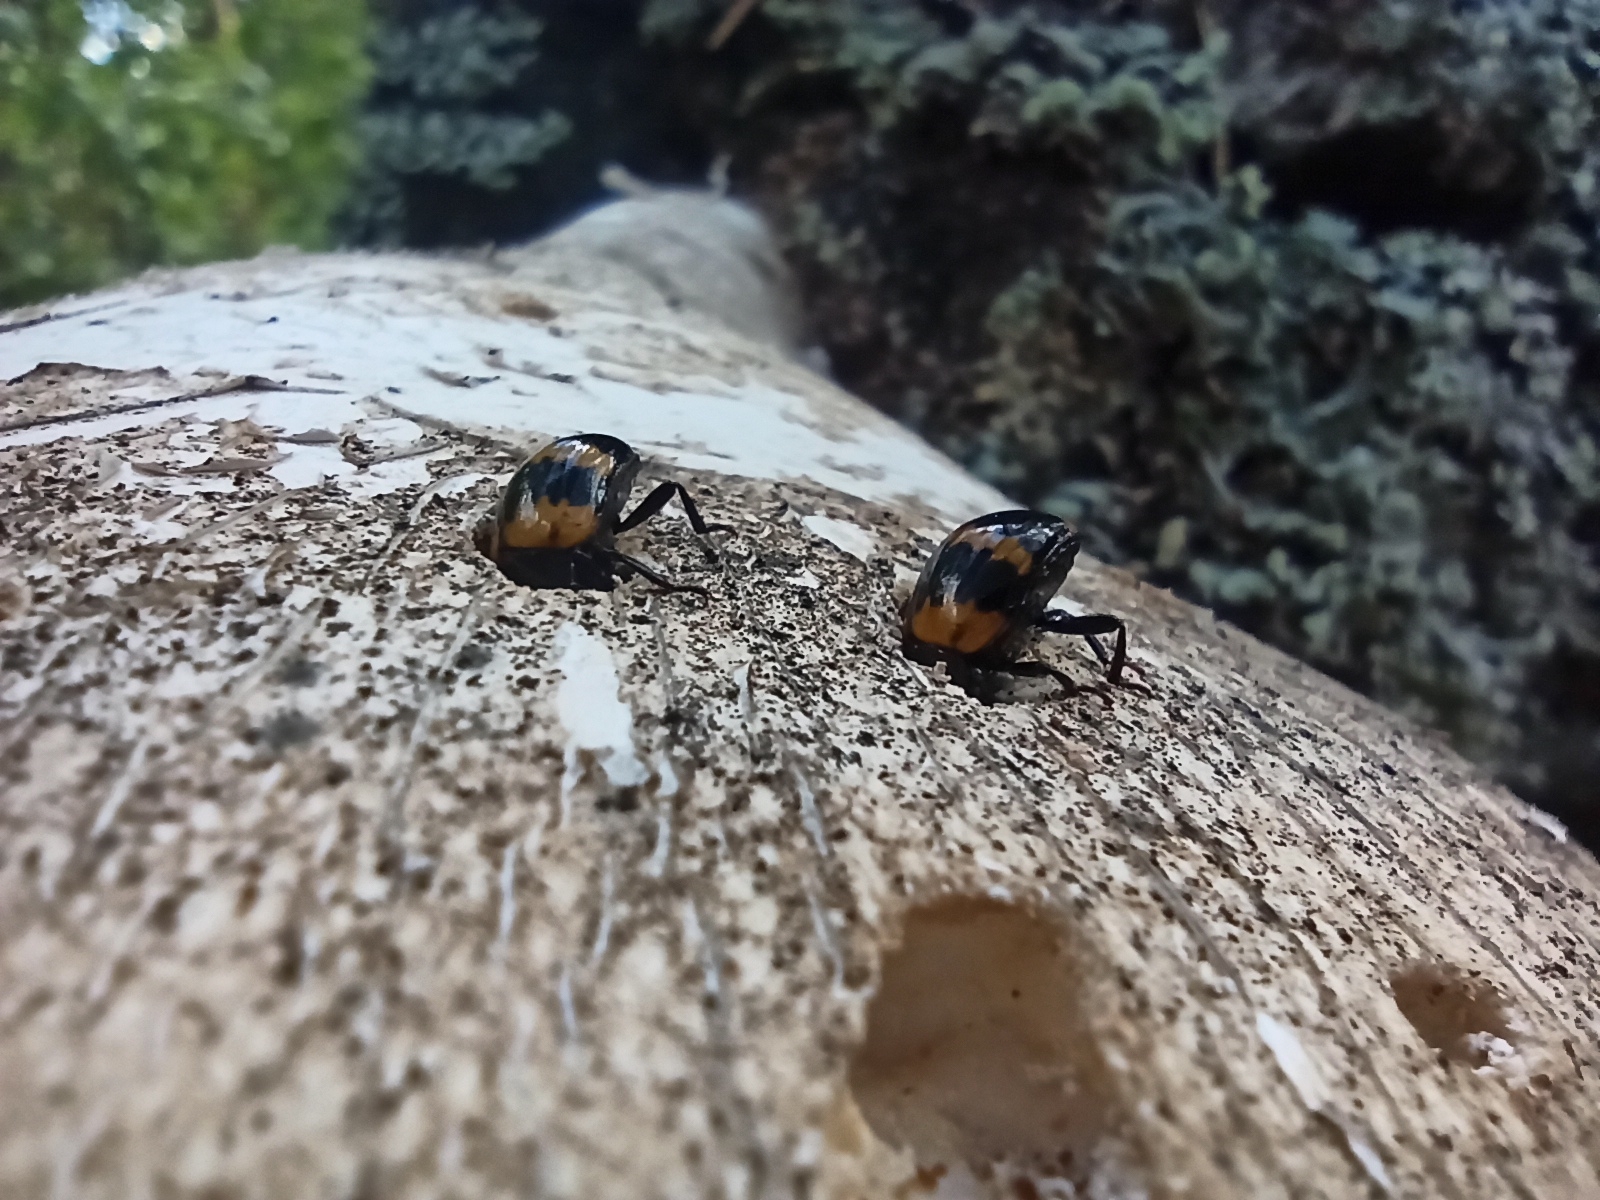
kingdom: Animalia
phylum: Arthropoda
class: Insecta
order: Coleoptera
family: Tenebrionidae
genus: Diaperis
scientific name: Diaperis boleti
